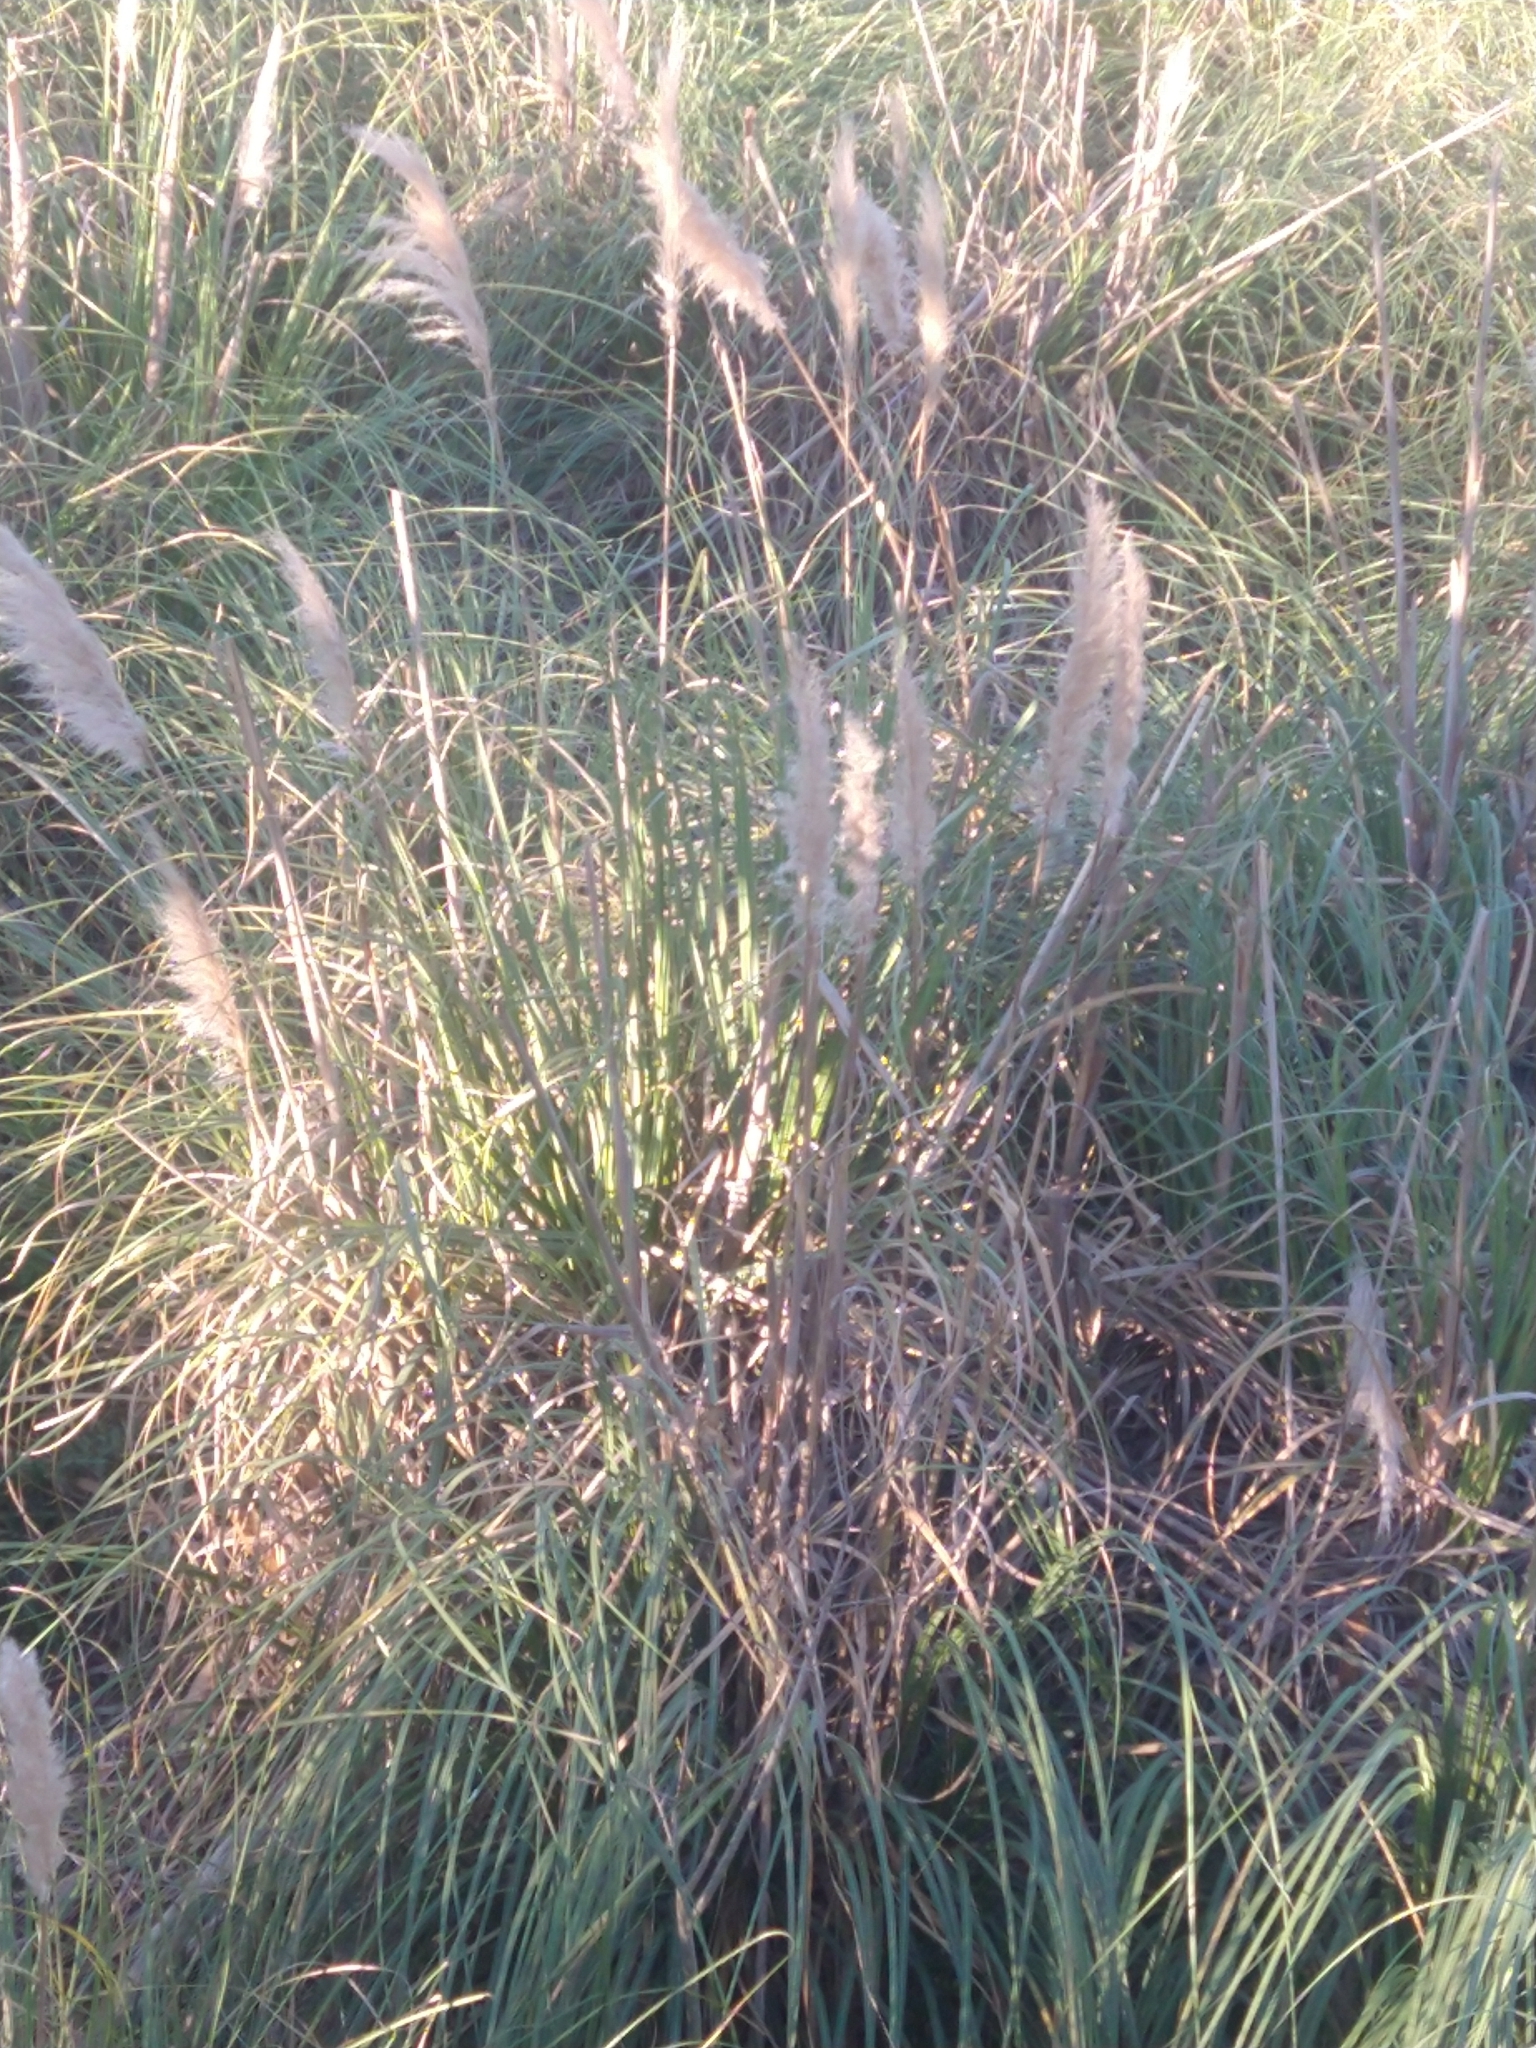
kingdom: Plantae
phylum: Tracheophyta
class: Liliopsida
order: Poales
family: Poaceae
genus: Cortaderia
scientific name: Cortaderia selloana
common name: Uruguayan pampas grass
